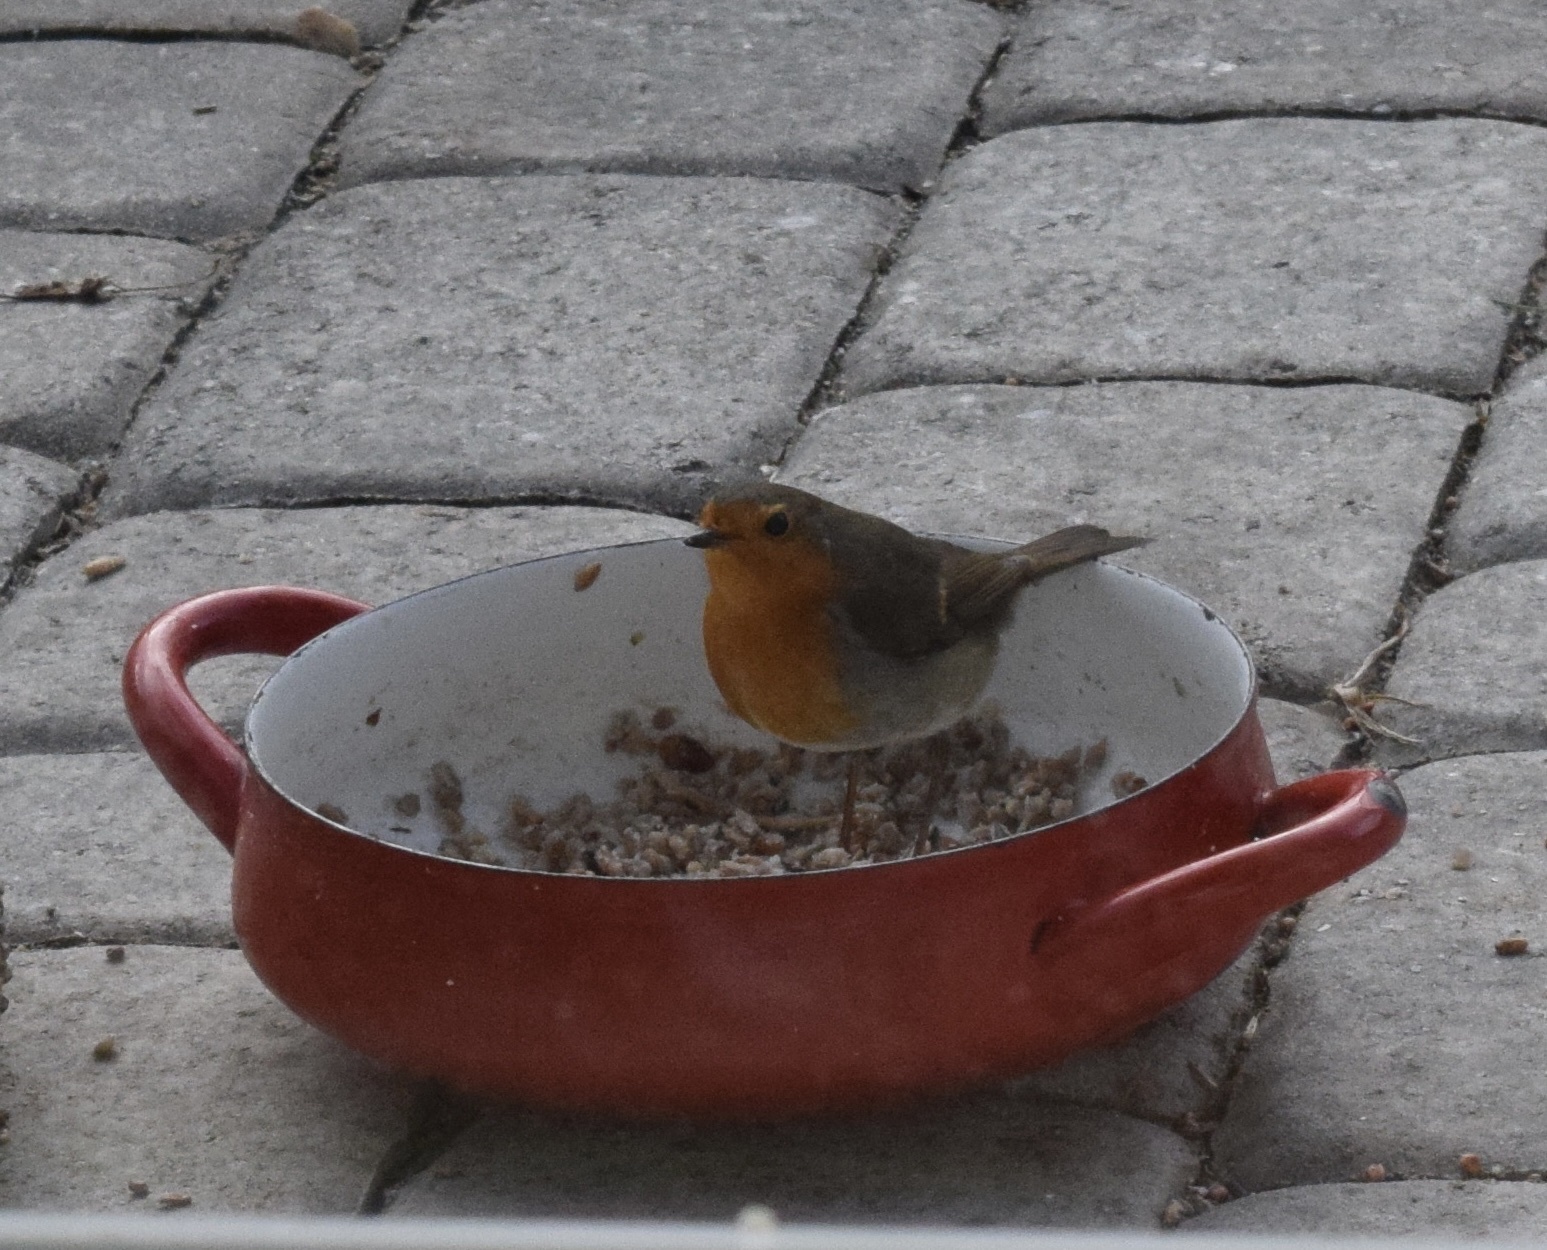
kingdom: Animalia
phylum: Chordata
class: Aves
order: Passeriformes
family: Muscicapidae
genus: Erithacus
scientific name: Erithacus rubecula
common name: European robin
